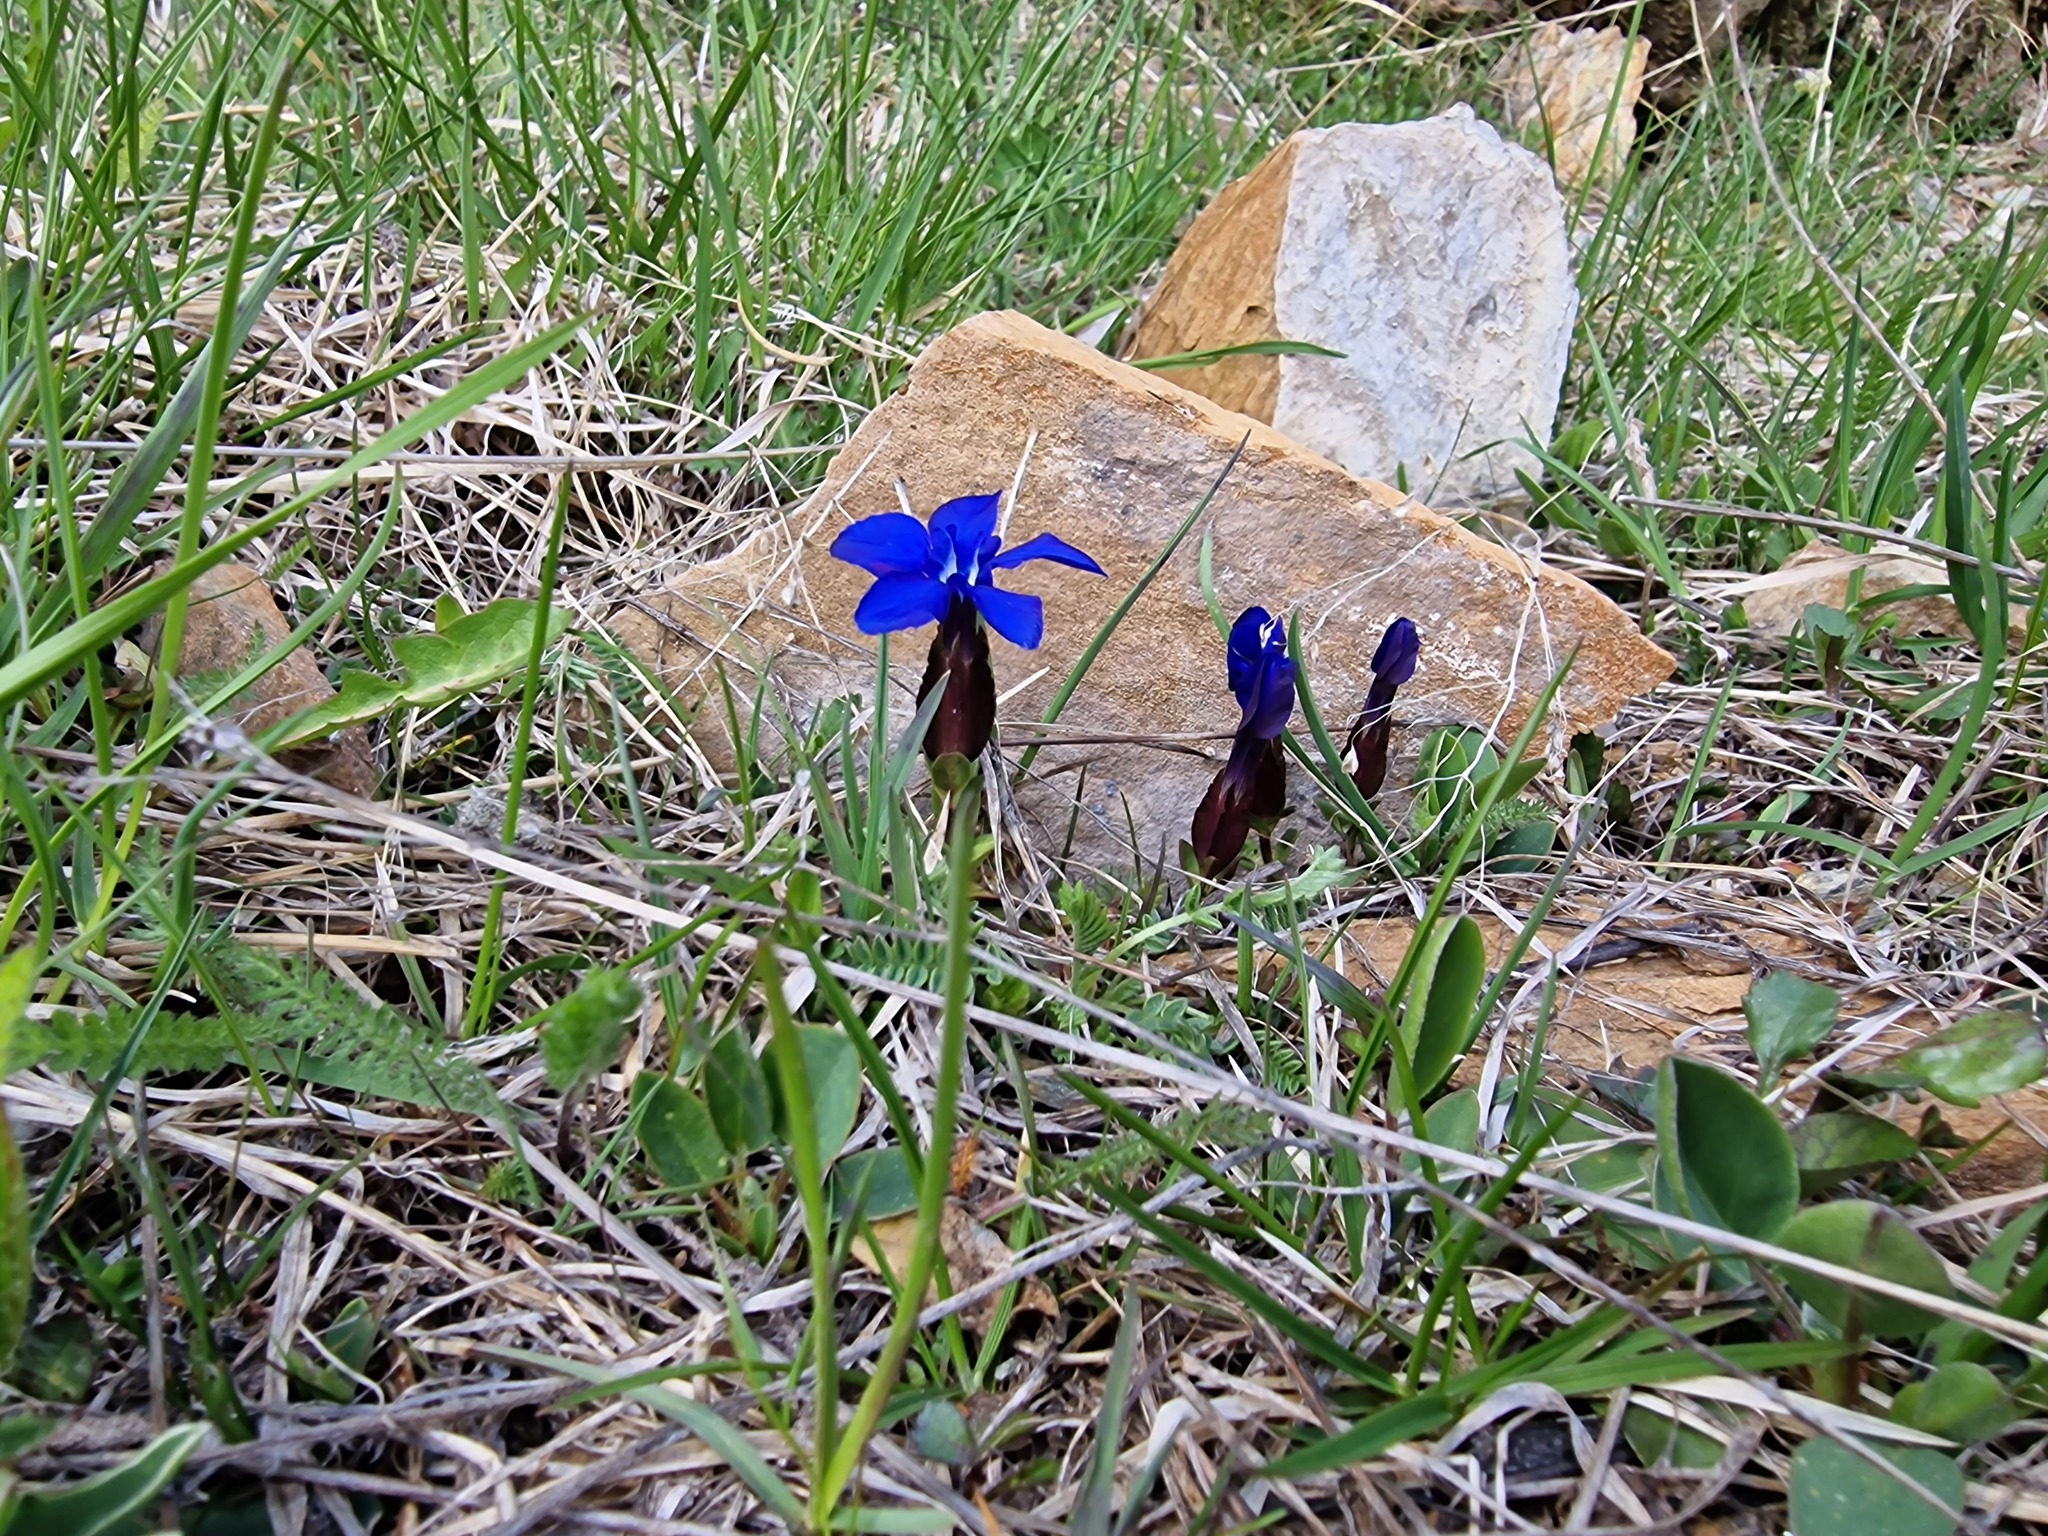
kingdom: Plantae
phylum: Tracheophyta
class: Magnoliopsida
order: Gentianales
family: Gentianaceae
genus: Gentiana
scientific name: Gentiana verna
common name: Spring gentian
